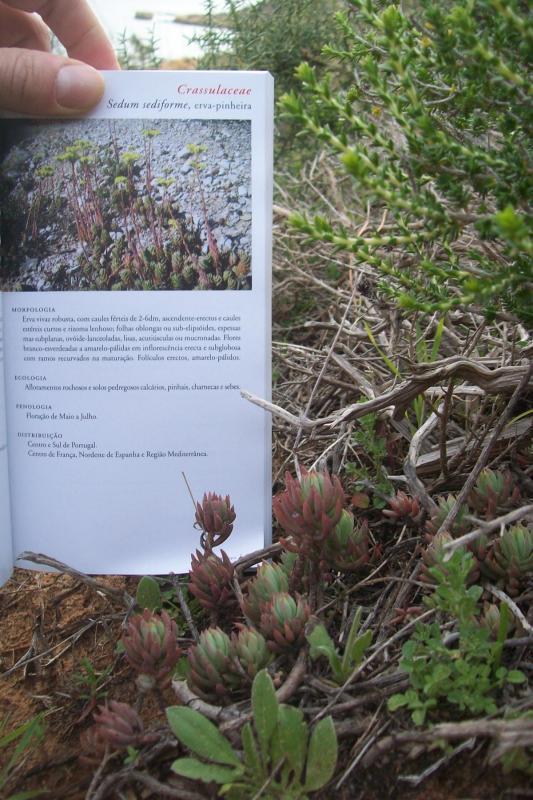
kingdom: Plantae
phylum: Tracheophyta
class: Magnoliopsida
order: Saxifragales
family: Crassulaceae
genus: Petrosedum
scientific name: Petrosedum sediforme
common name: Pale stonecrop
